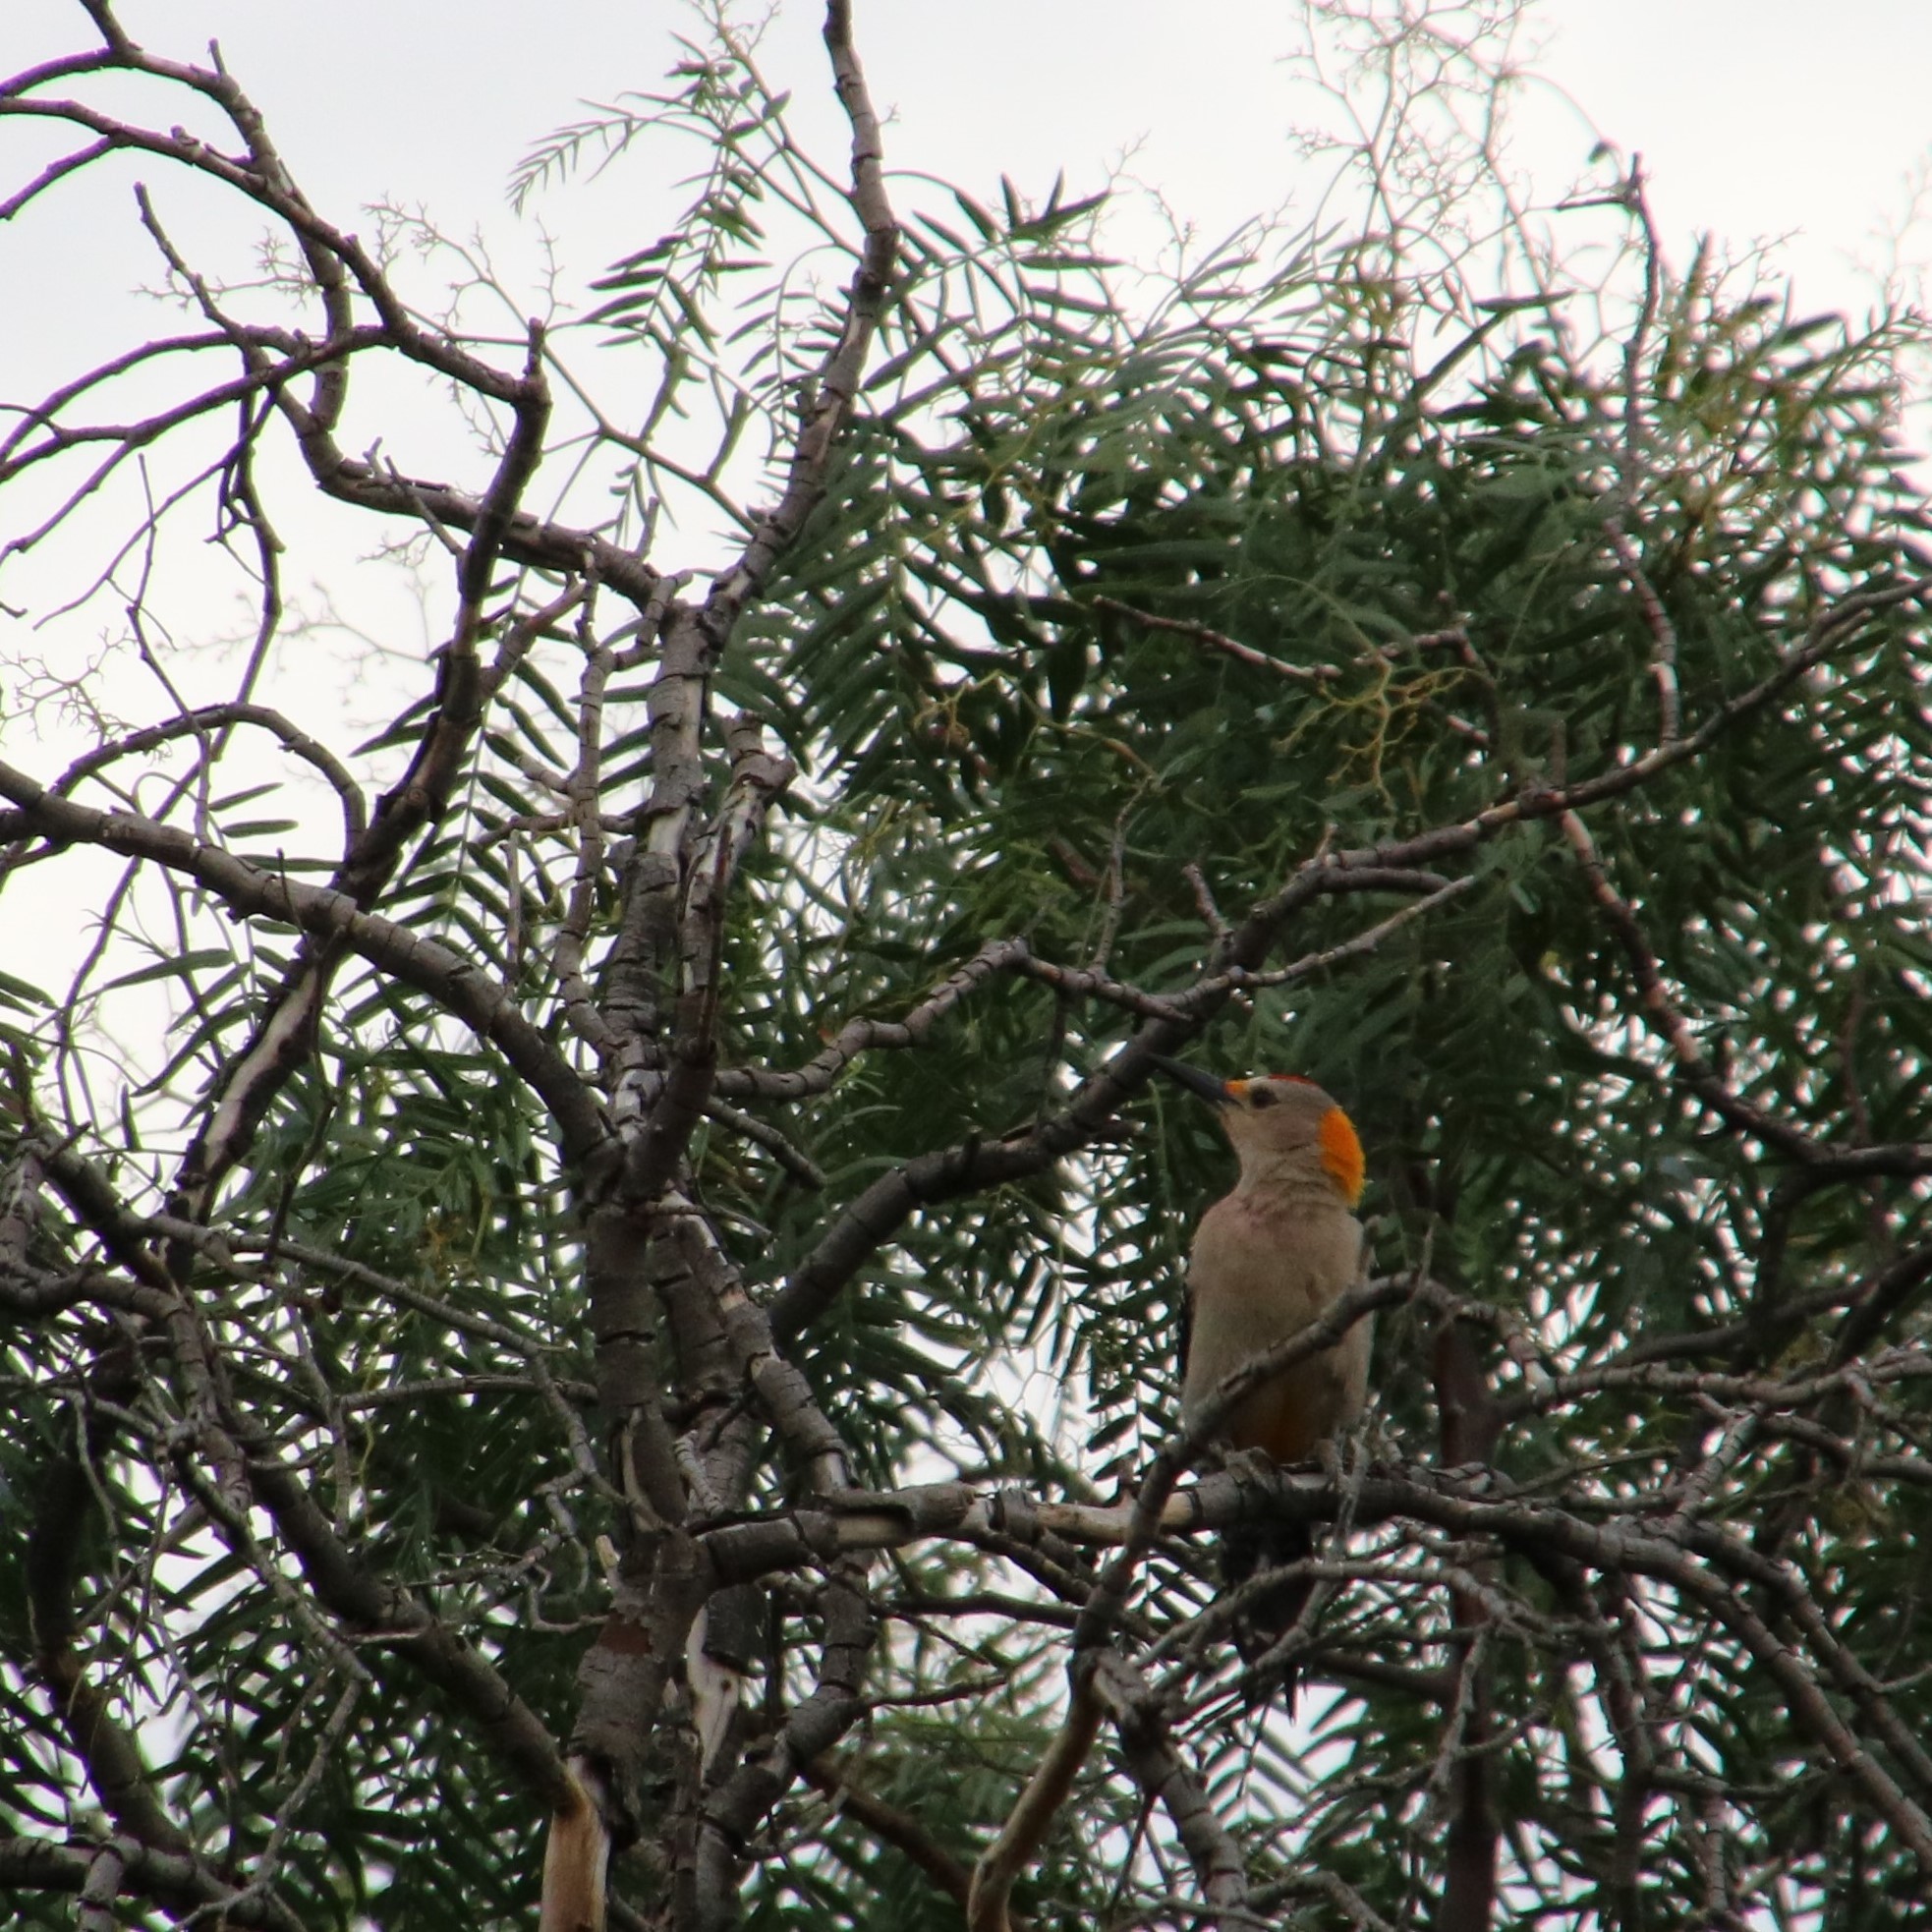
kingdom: Animalia
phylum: Chordata
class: Aves
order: Piciformes
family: Picidae
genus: Melanerpes
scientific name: Melanerpes aurifrons
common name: Golden-fronted woodpecker
